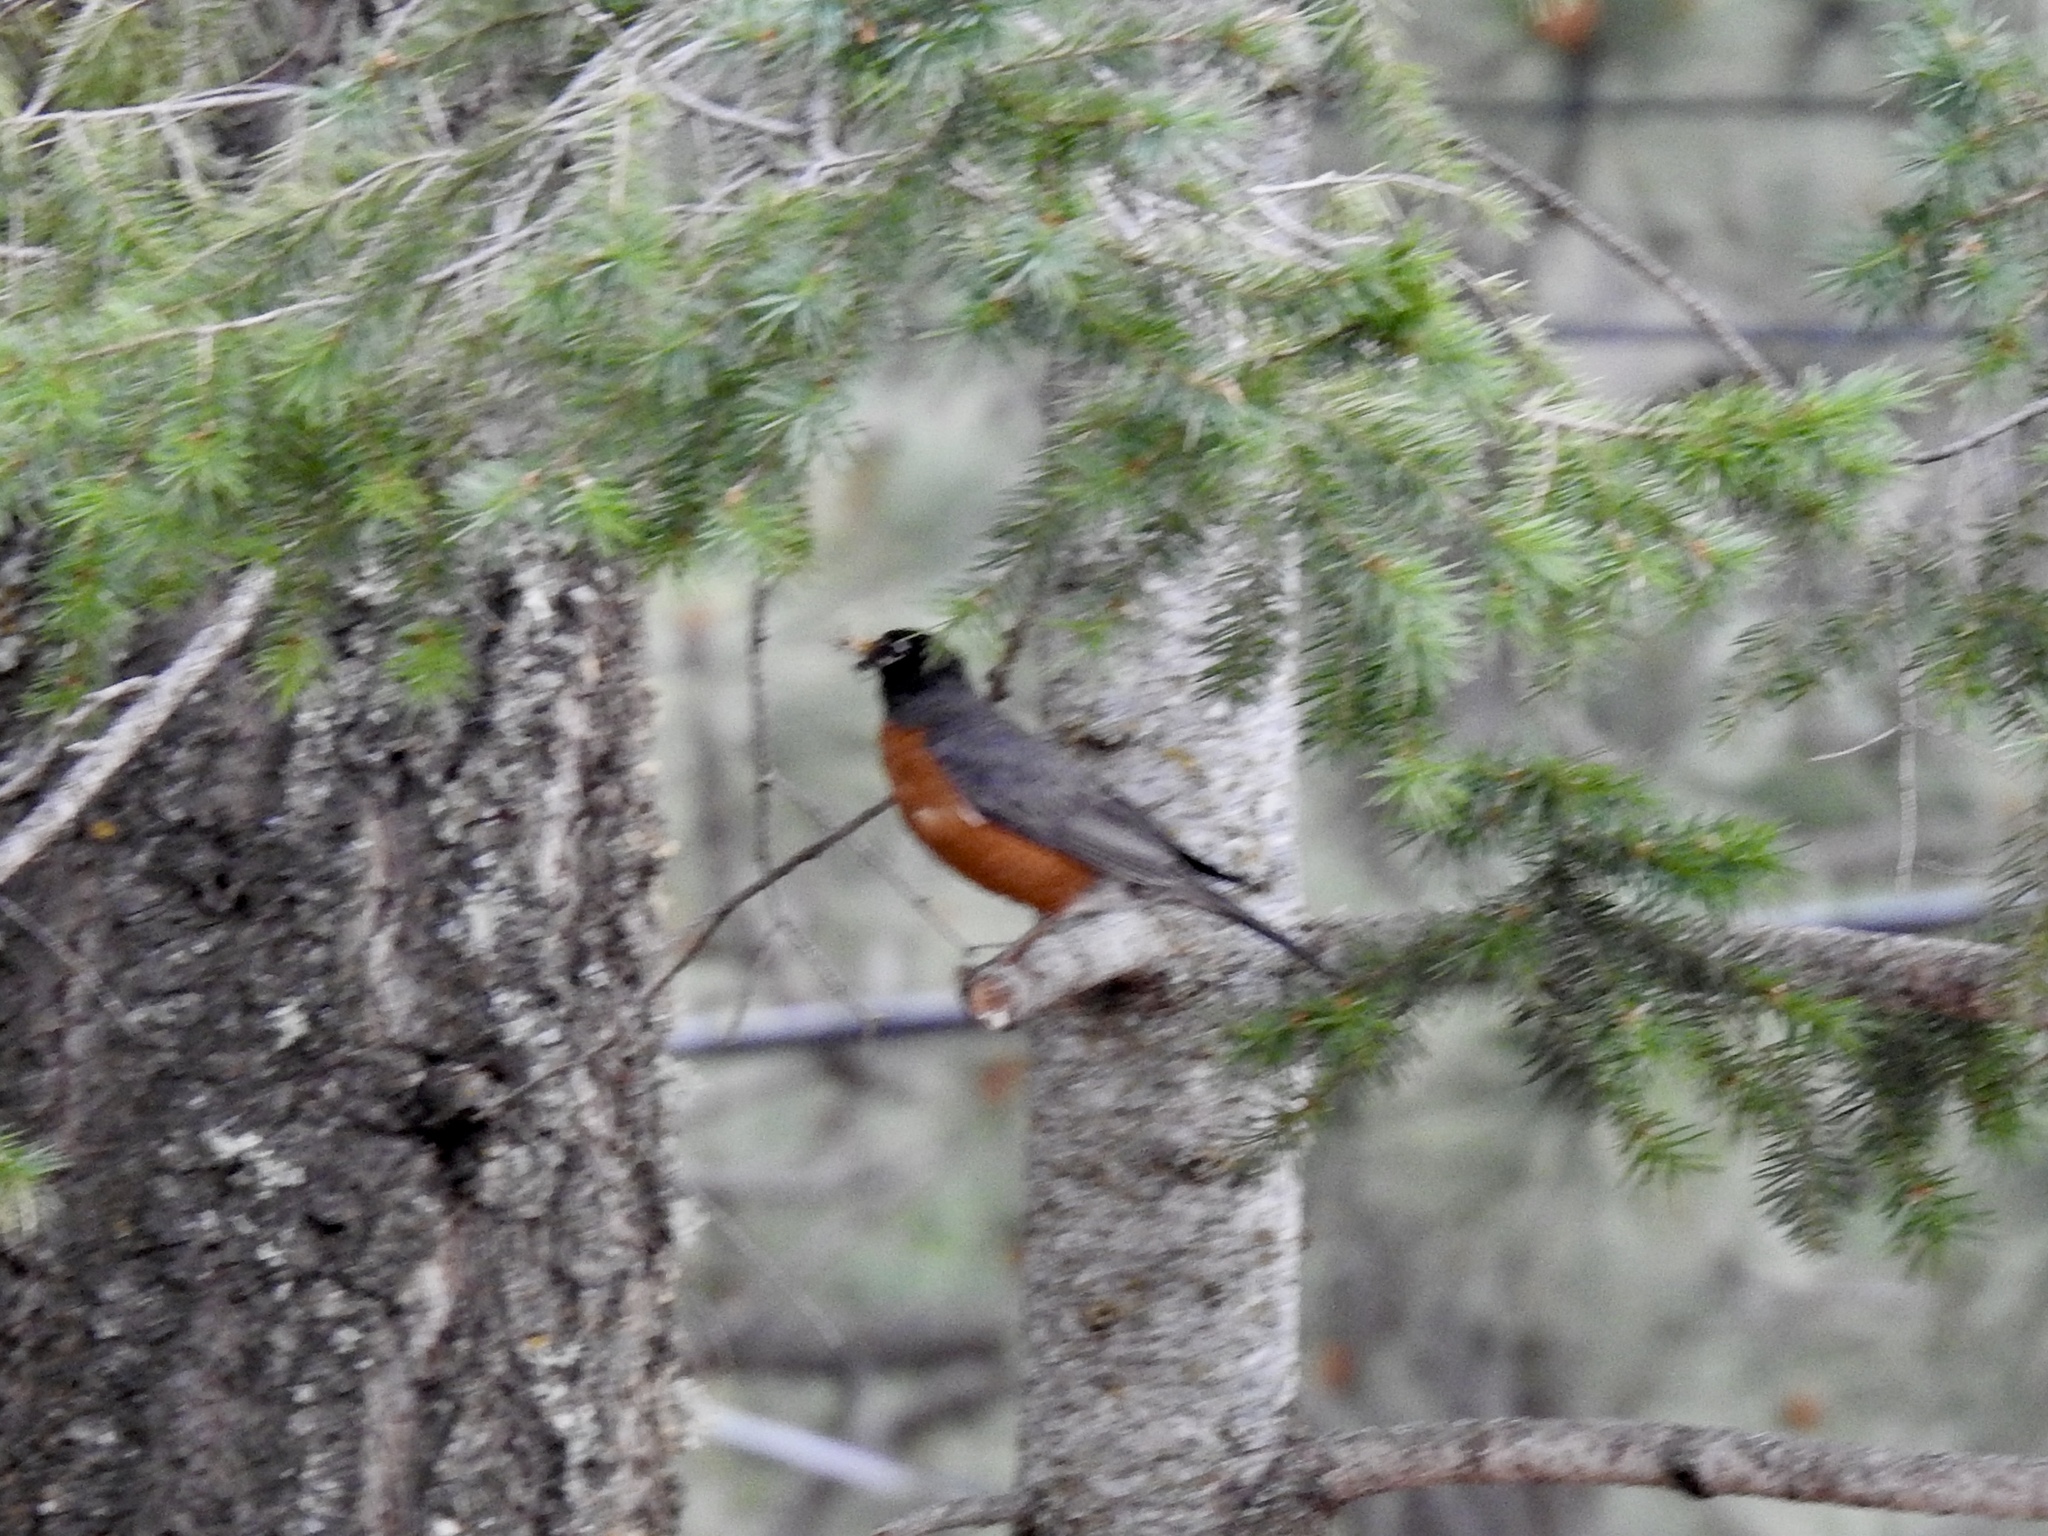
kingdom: Animalia
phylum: Chordata
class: Aves
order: Passeriformes
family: Turdidae
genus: Turdus
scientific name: Turdus migratorius
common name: American robin
